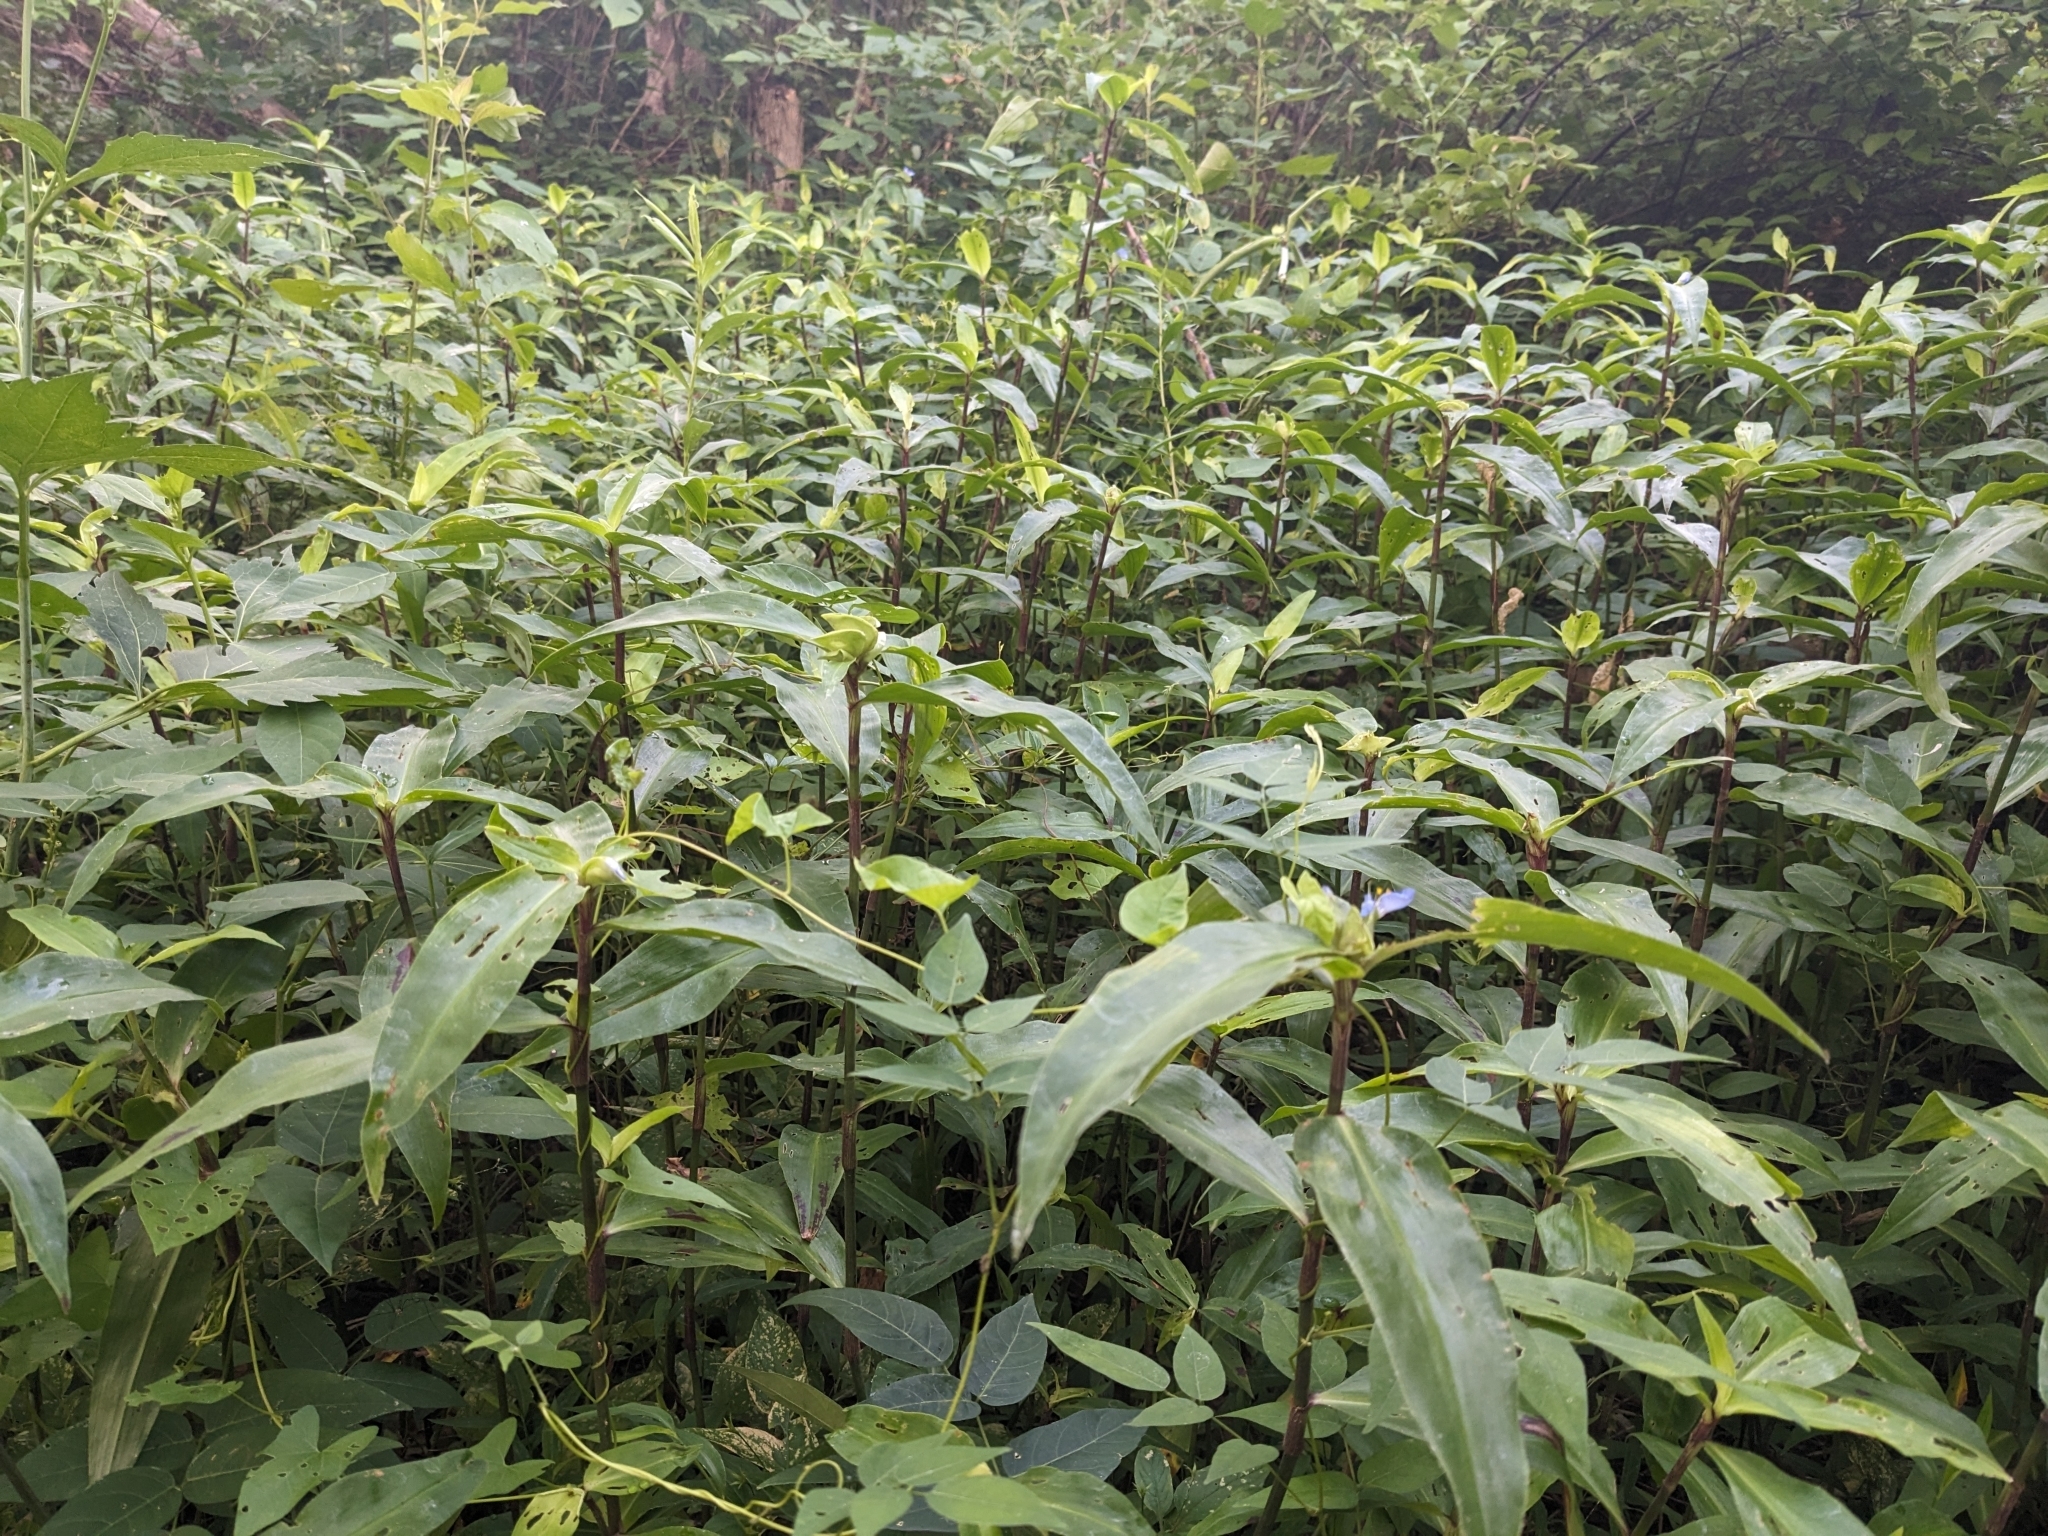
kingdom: Plantae
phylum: Tracheophyta
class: Liliopsida
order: Commelinales
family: Commelinaceae
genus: Commelina
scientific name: Commelina virginica
